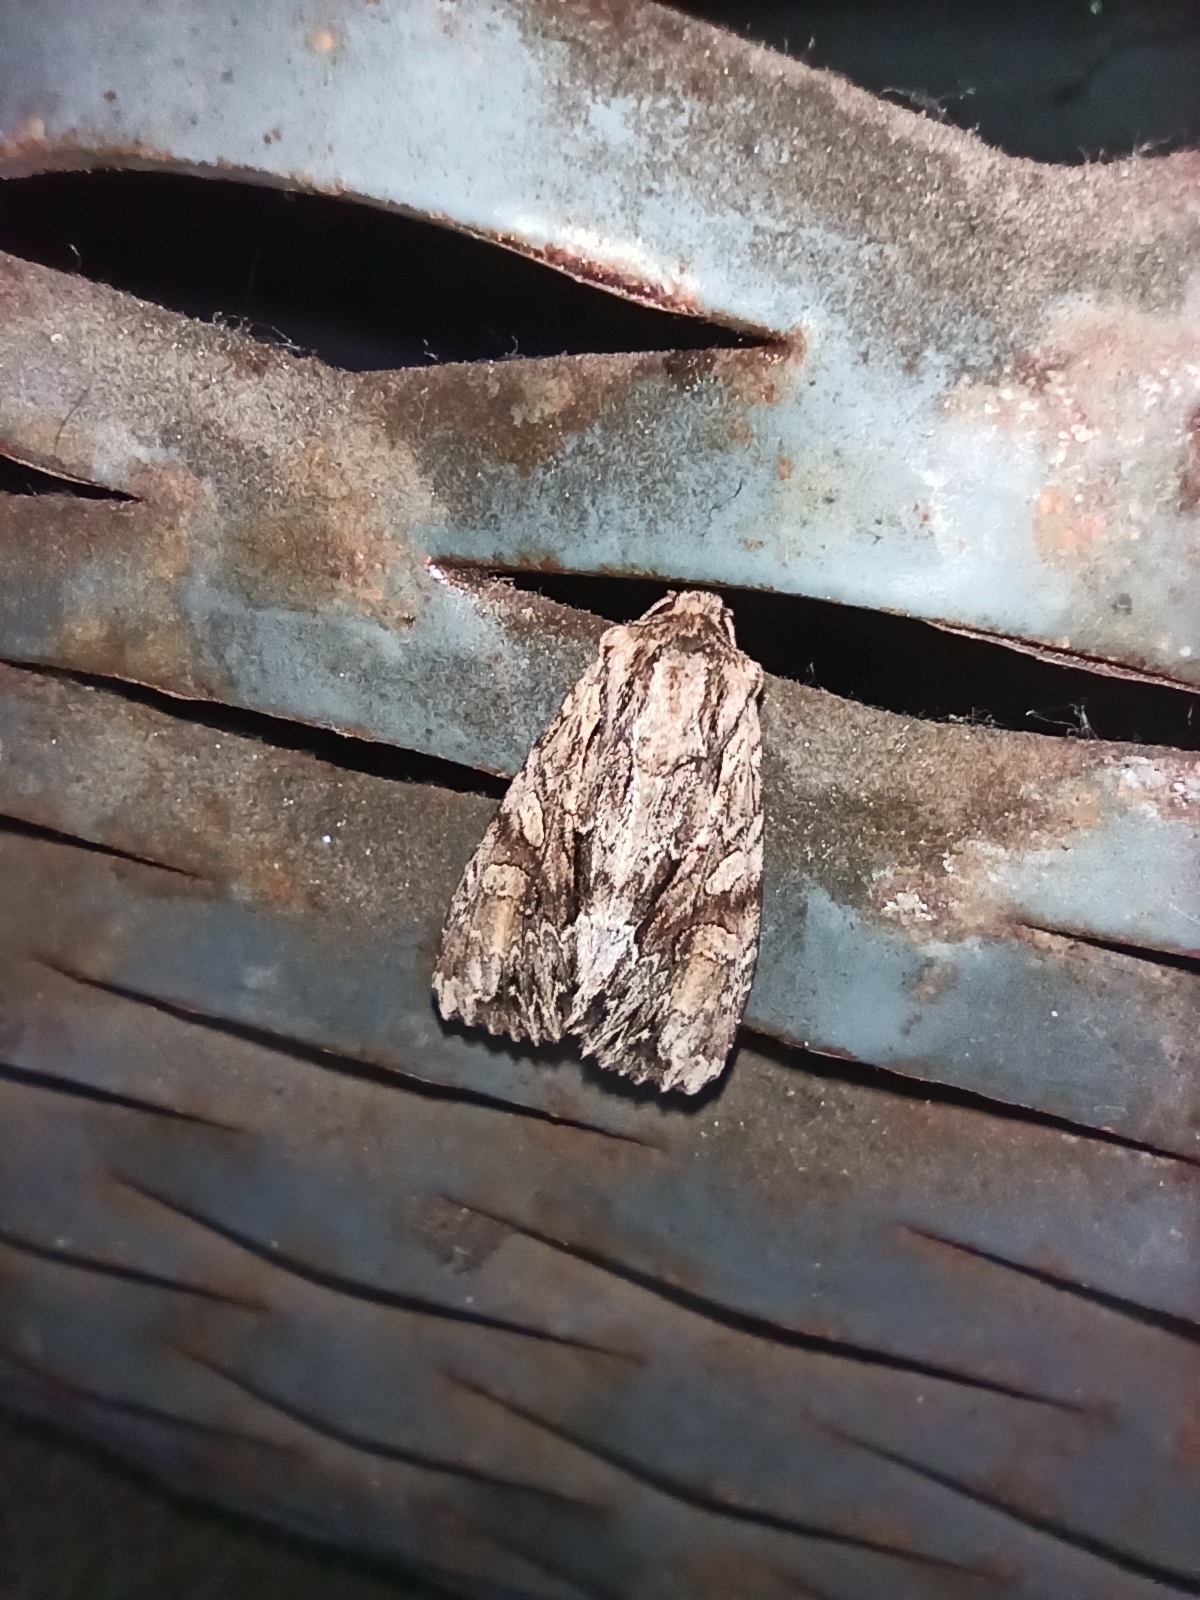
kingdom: Animalia
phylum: Arthropoda
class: Insecta
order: Lepidoptera
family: Noctuidae
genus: Apamea
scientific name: Apamea monoglypha
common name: Dark arches
